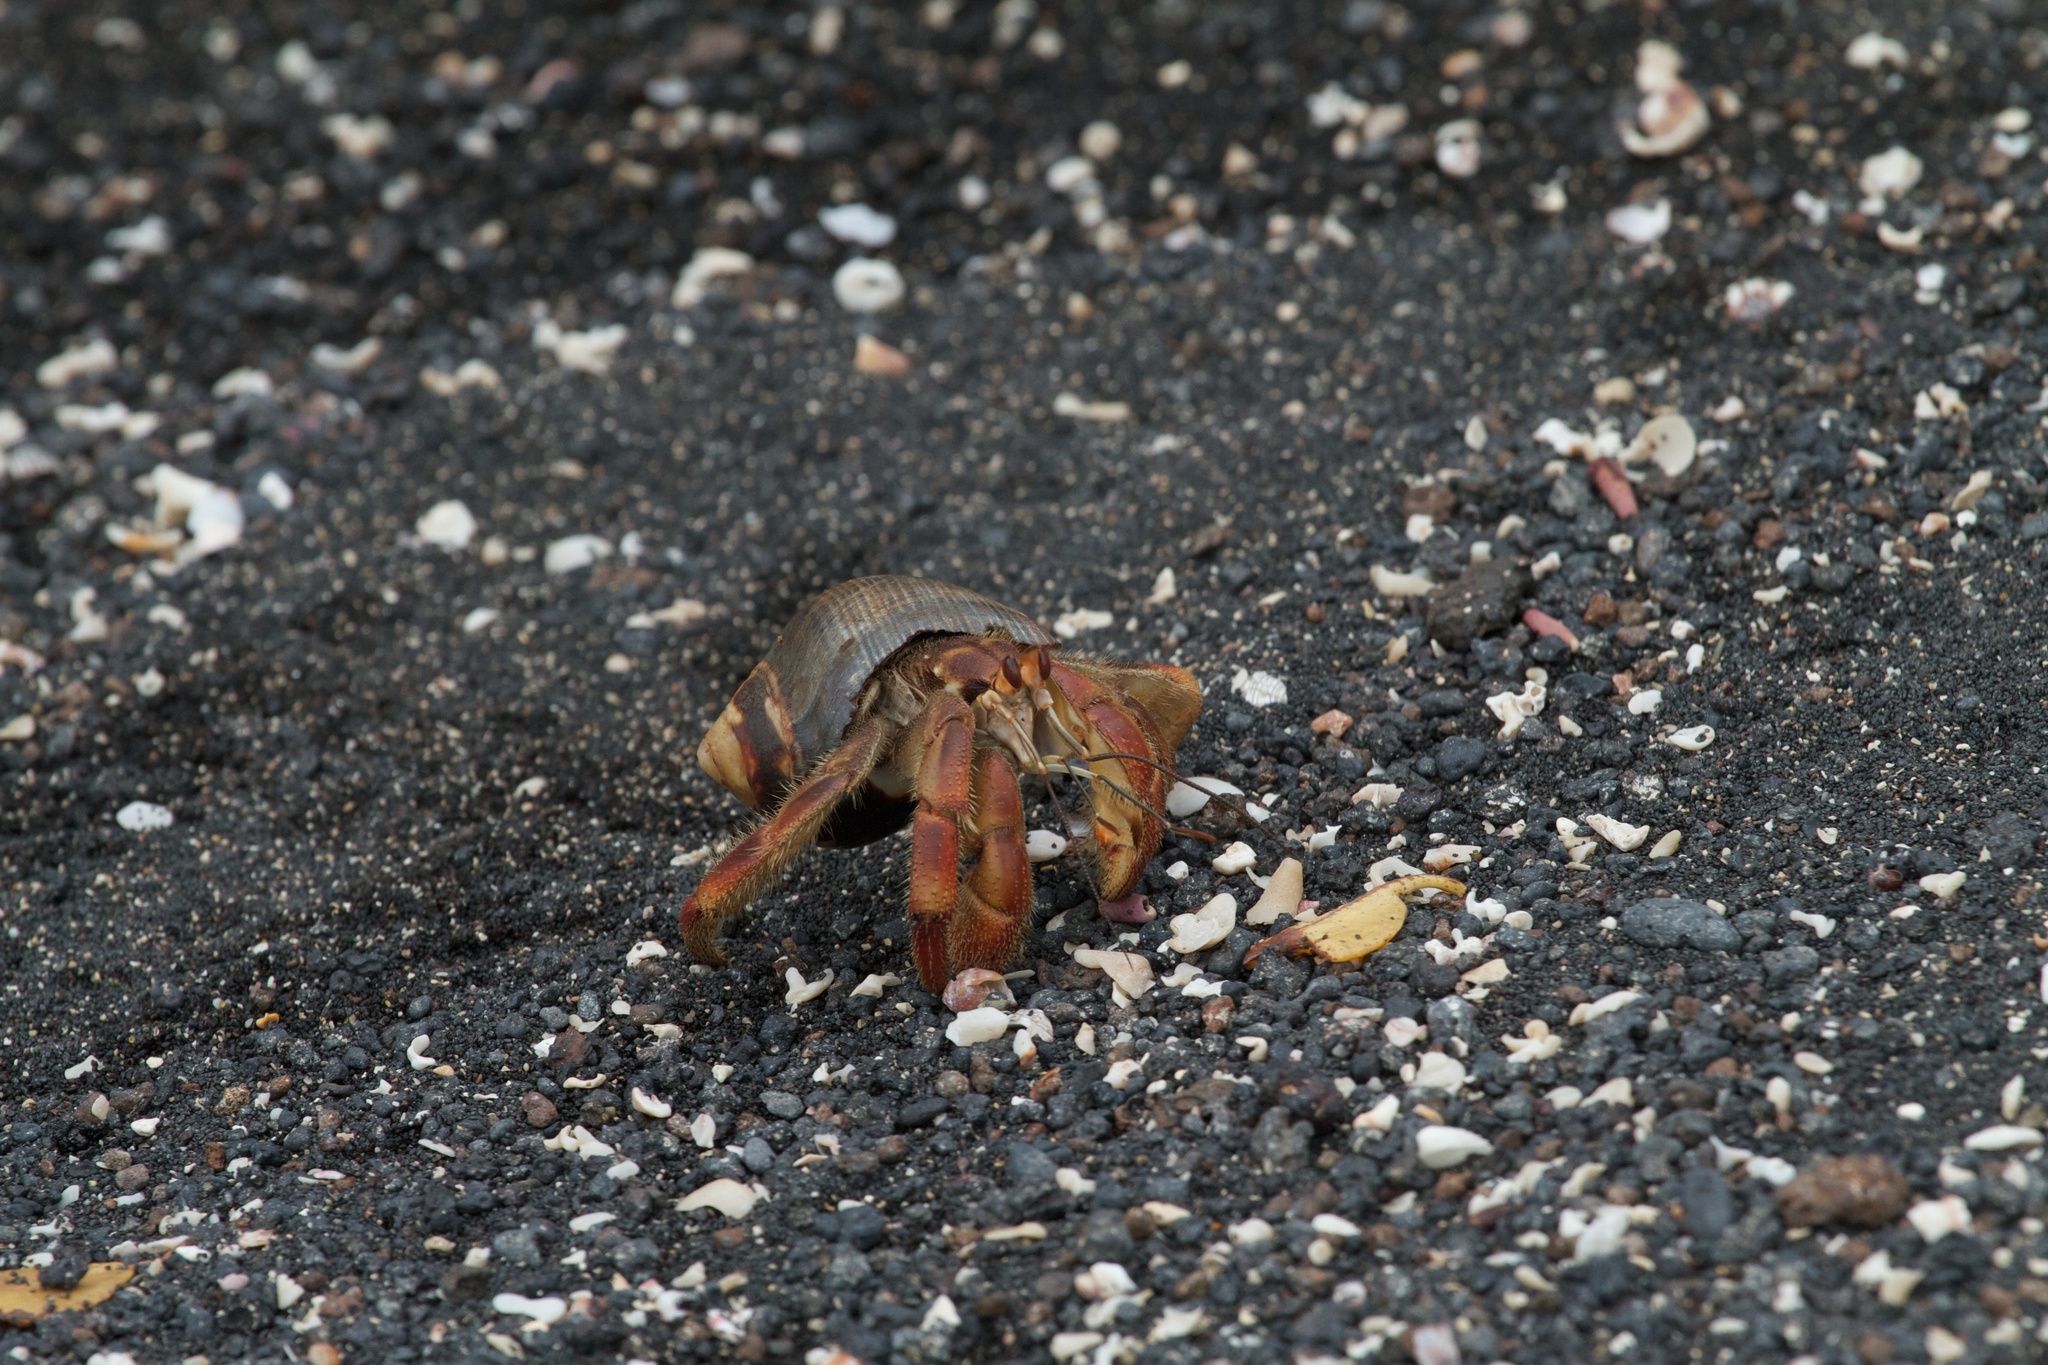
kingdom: Animalia
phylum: Arthropoda
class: Malacostraca
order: Decapoda
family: Coenobitidae
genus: Coenobita
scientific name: Coenobita compressus
